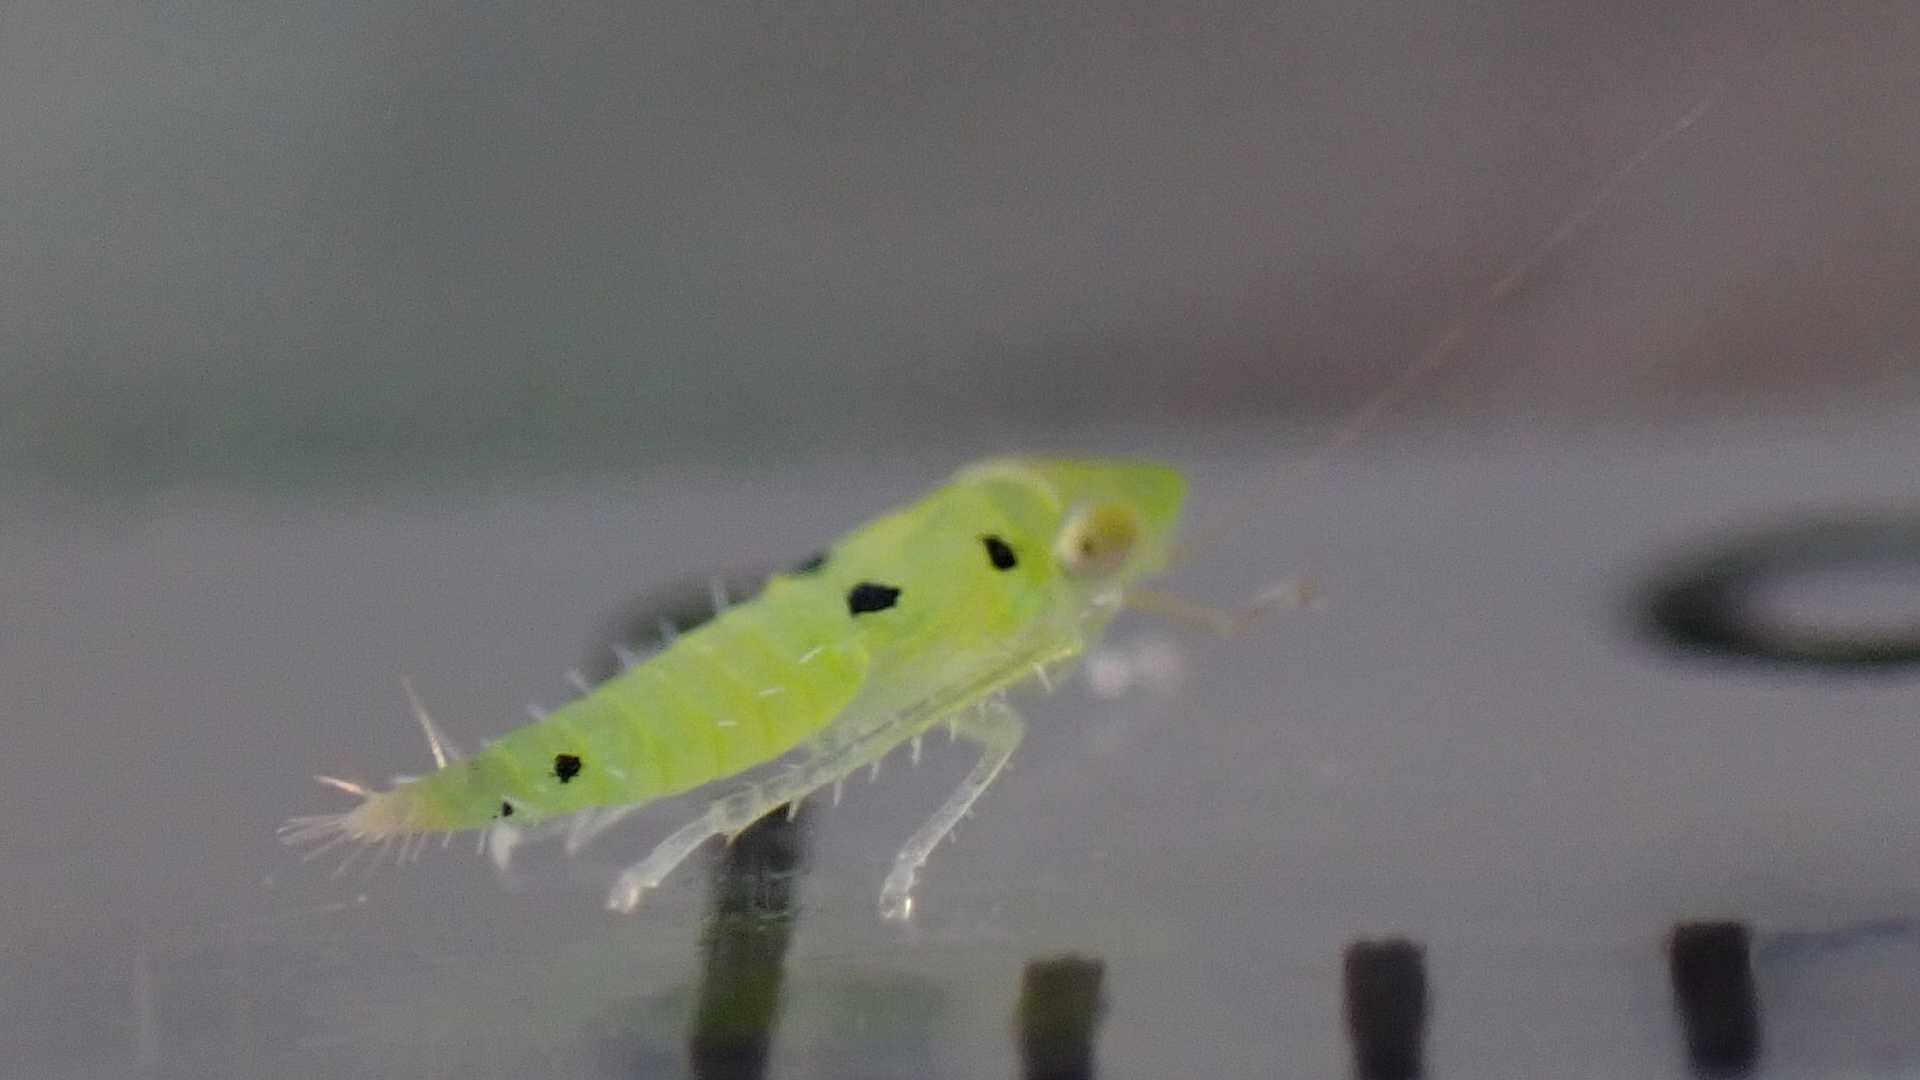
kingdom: Animalia
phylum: Arthropoda
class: Insecta
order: Hemiptera
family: Cicadellidae
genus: Synophropsis
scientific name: Synophropsis lauri
